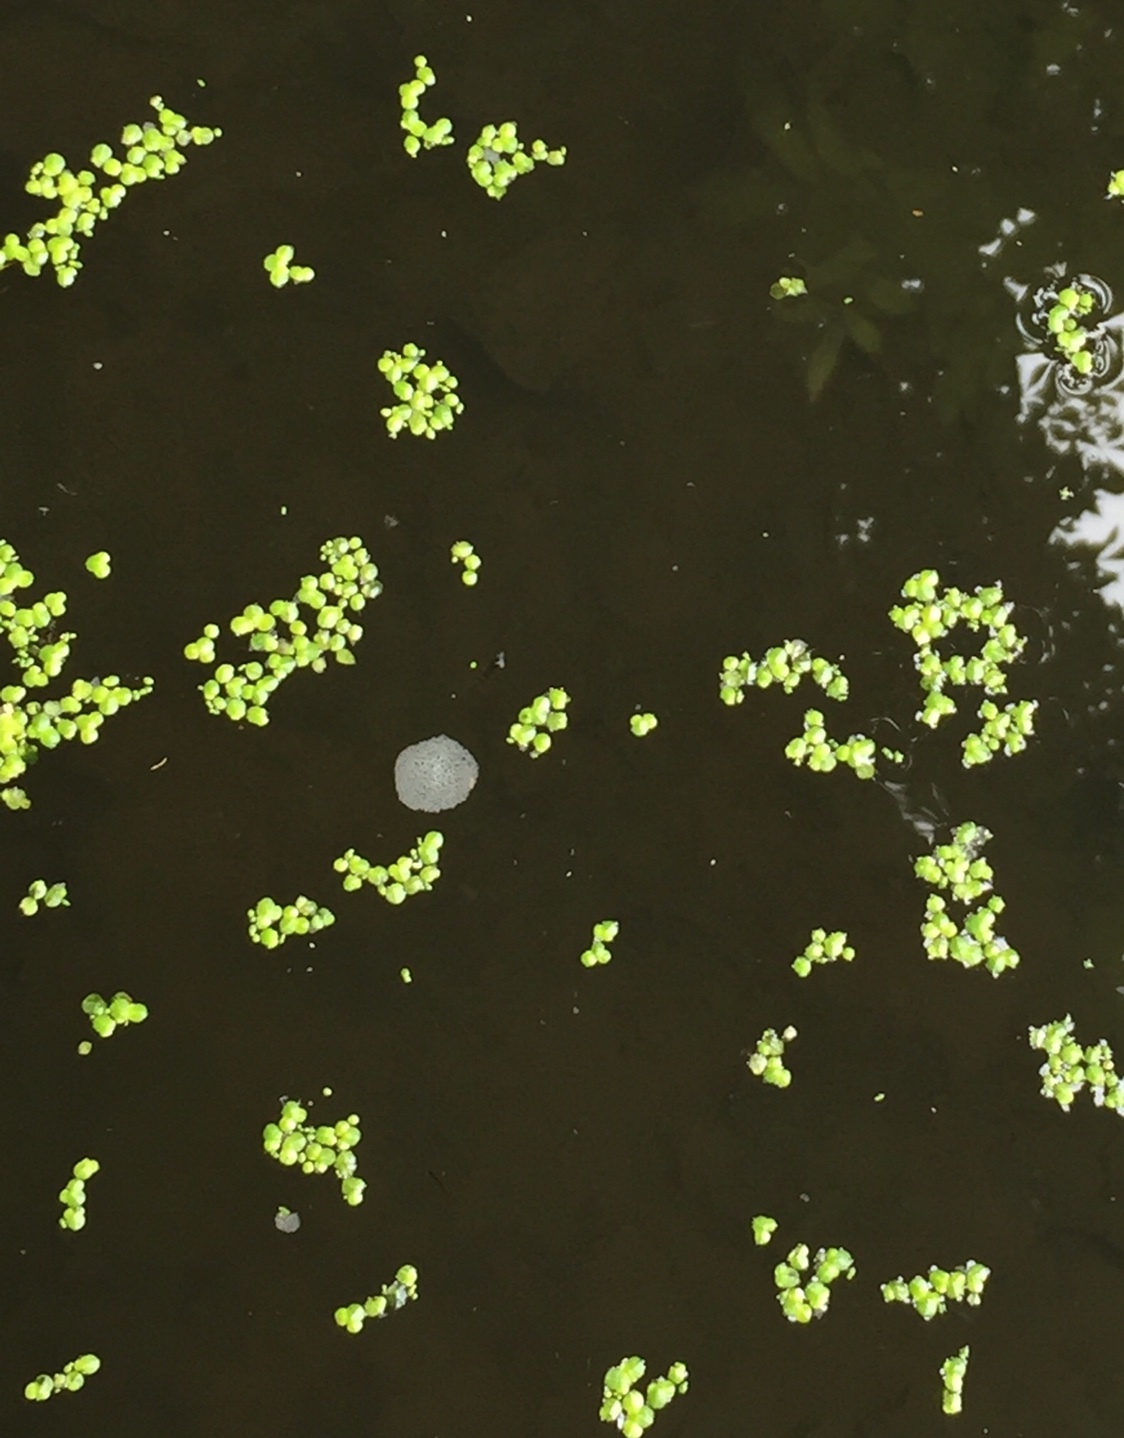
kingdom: Plantae
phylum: Tracheophyta
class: Liliopsida
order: Alismatales
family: Araceae
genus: Lemna
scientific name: Lemna minor
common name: Common duckweed
